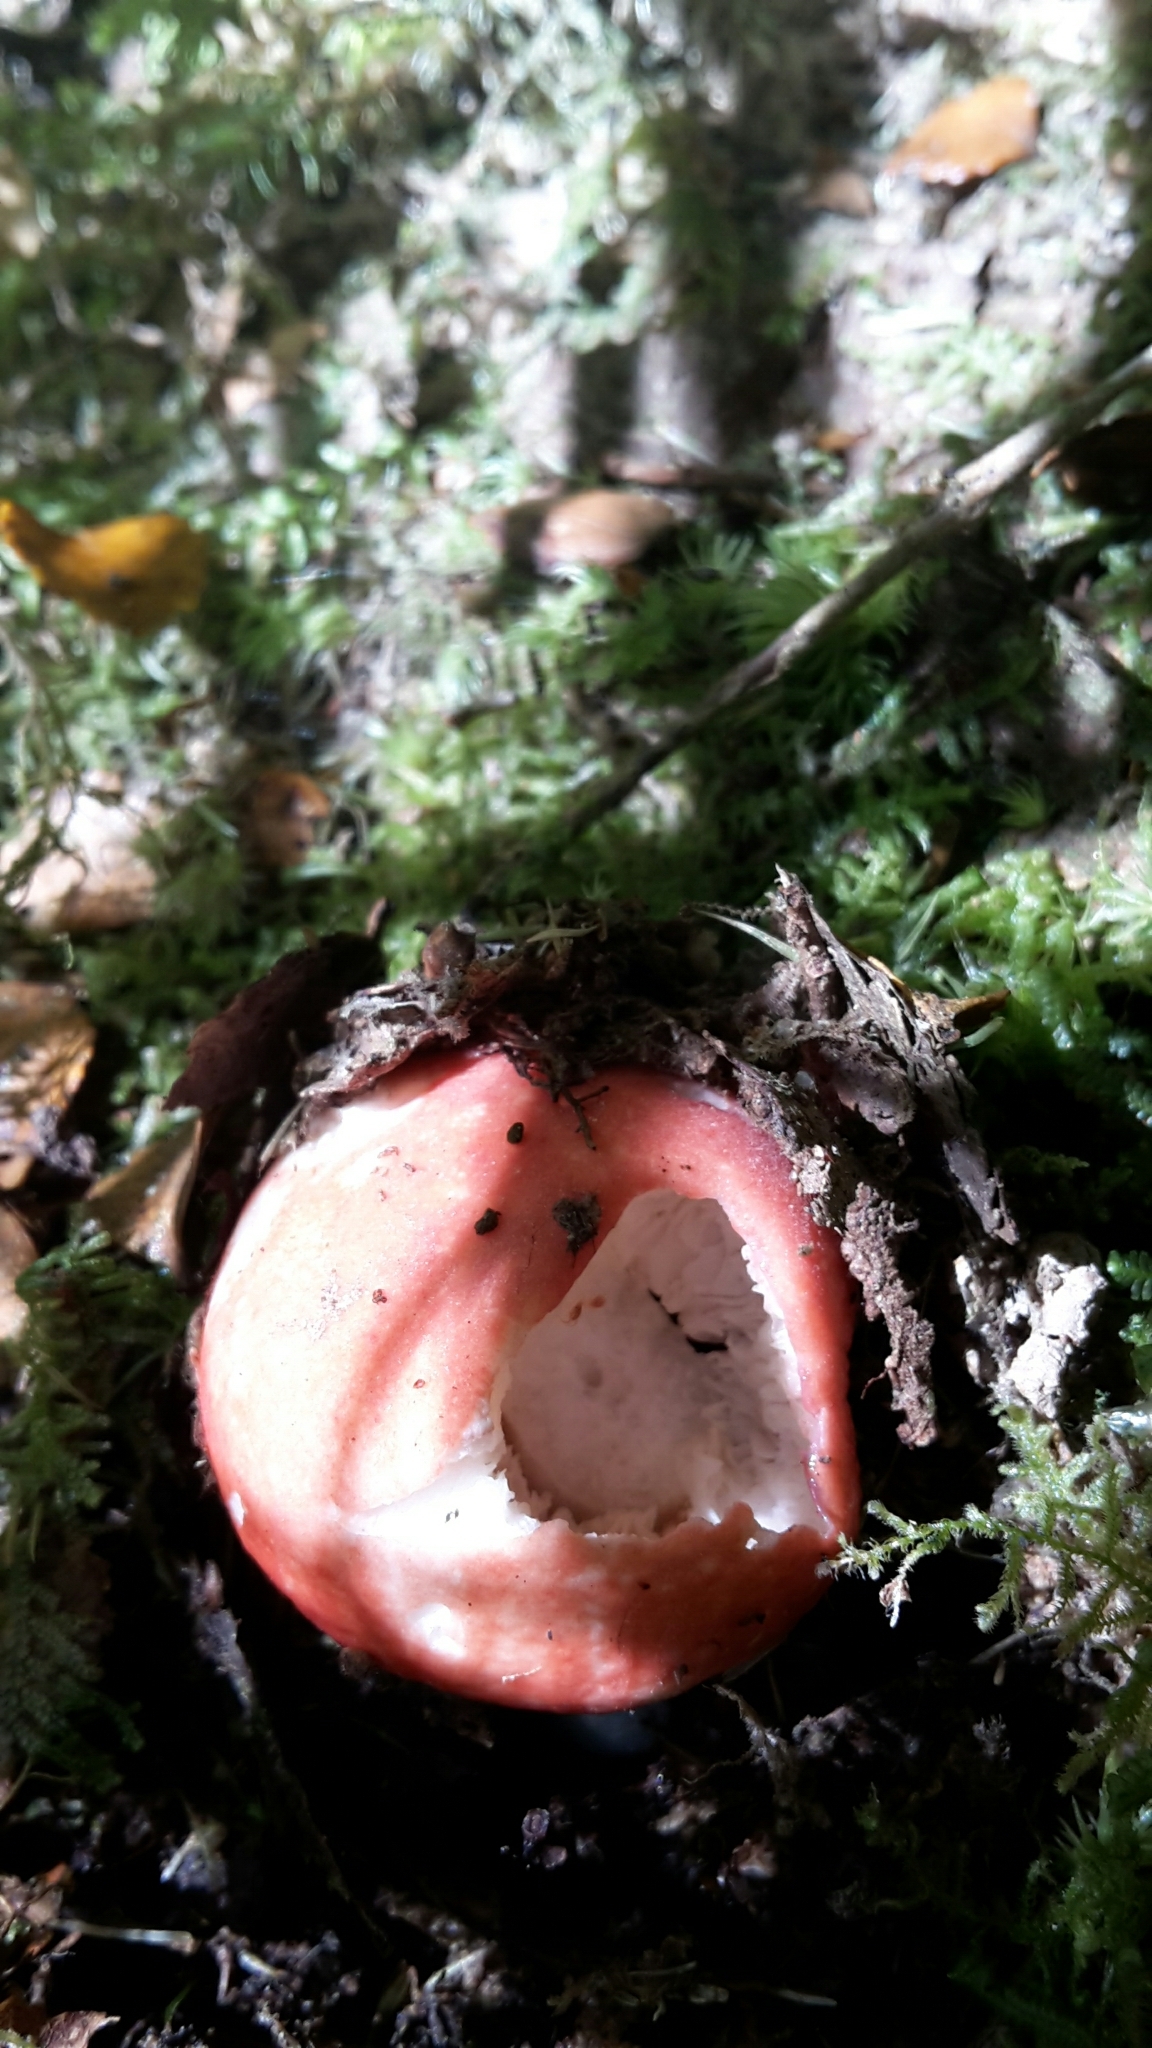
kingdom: Fungi
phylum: Basidiomycota
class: Agaricomycetes
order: Russulales
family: Russulaceae
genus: Russula
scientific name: Russula kermesina
